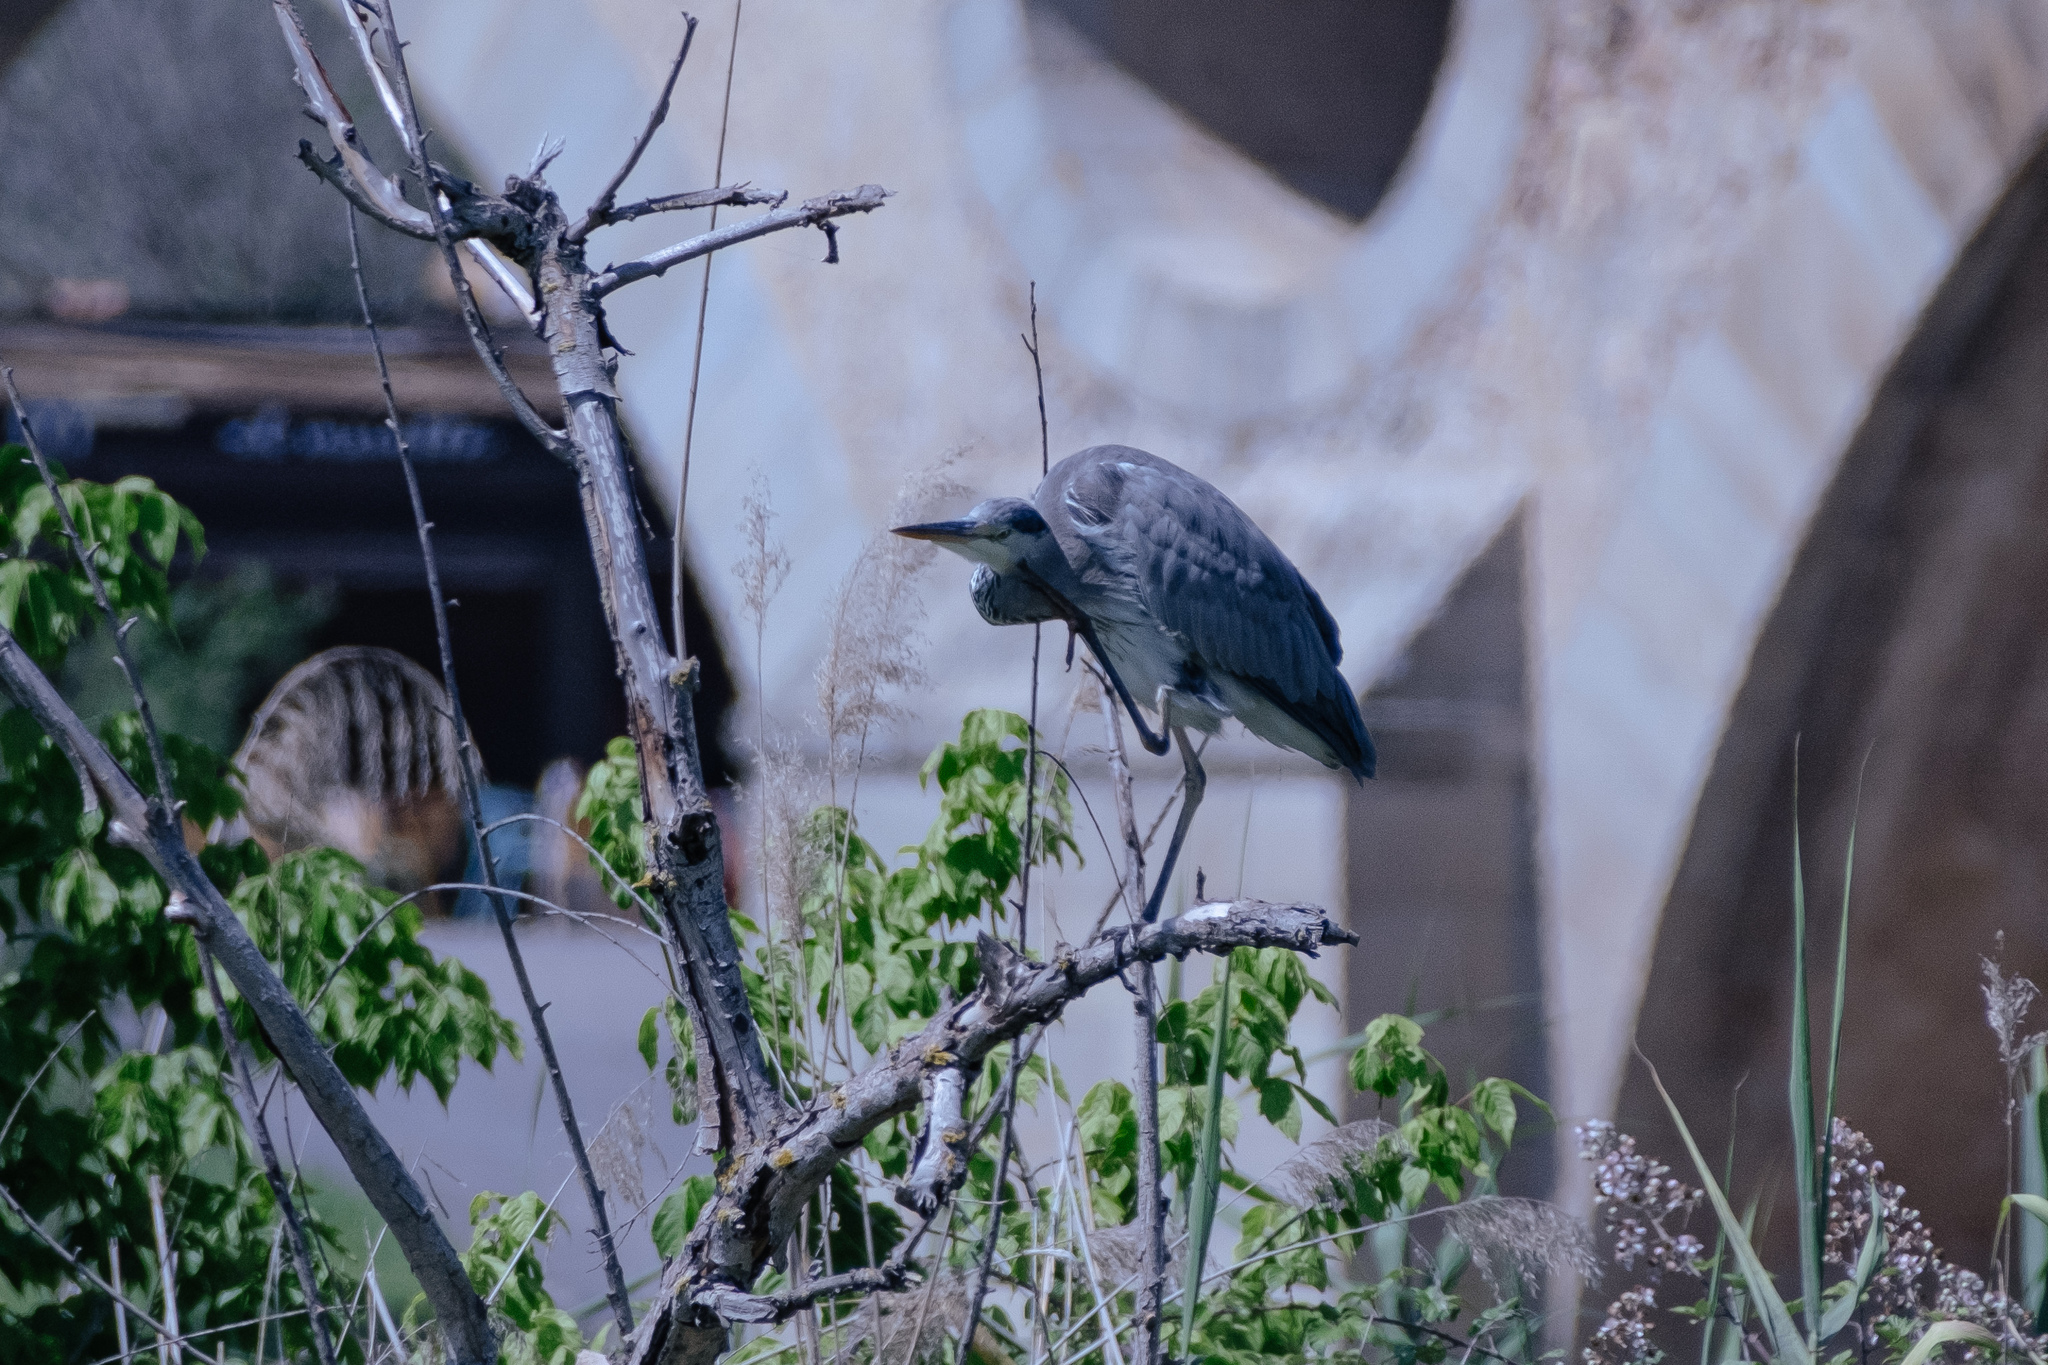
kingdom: Animalia
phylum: Chordata
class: Aves
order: Pelecaniformes
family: Ardeidae
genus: Ardea
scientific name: Ardea cinerea
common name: Grey heron
